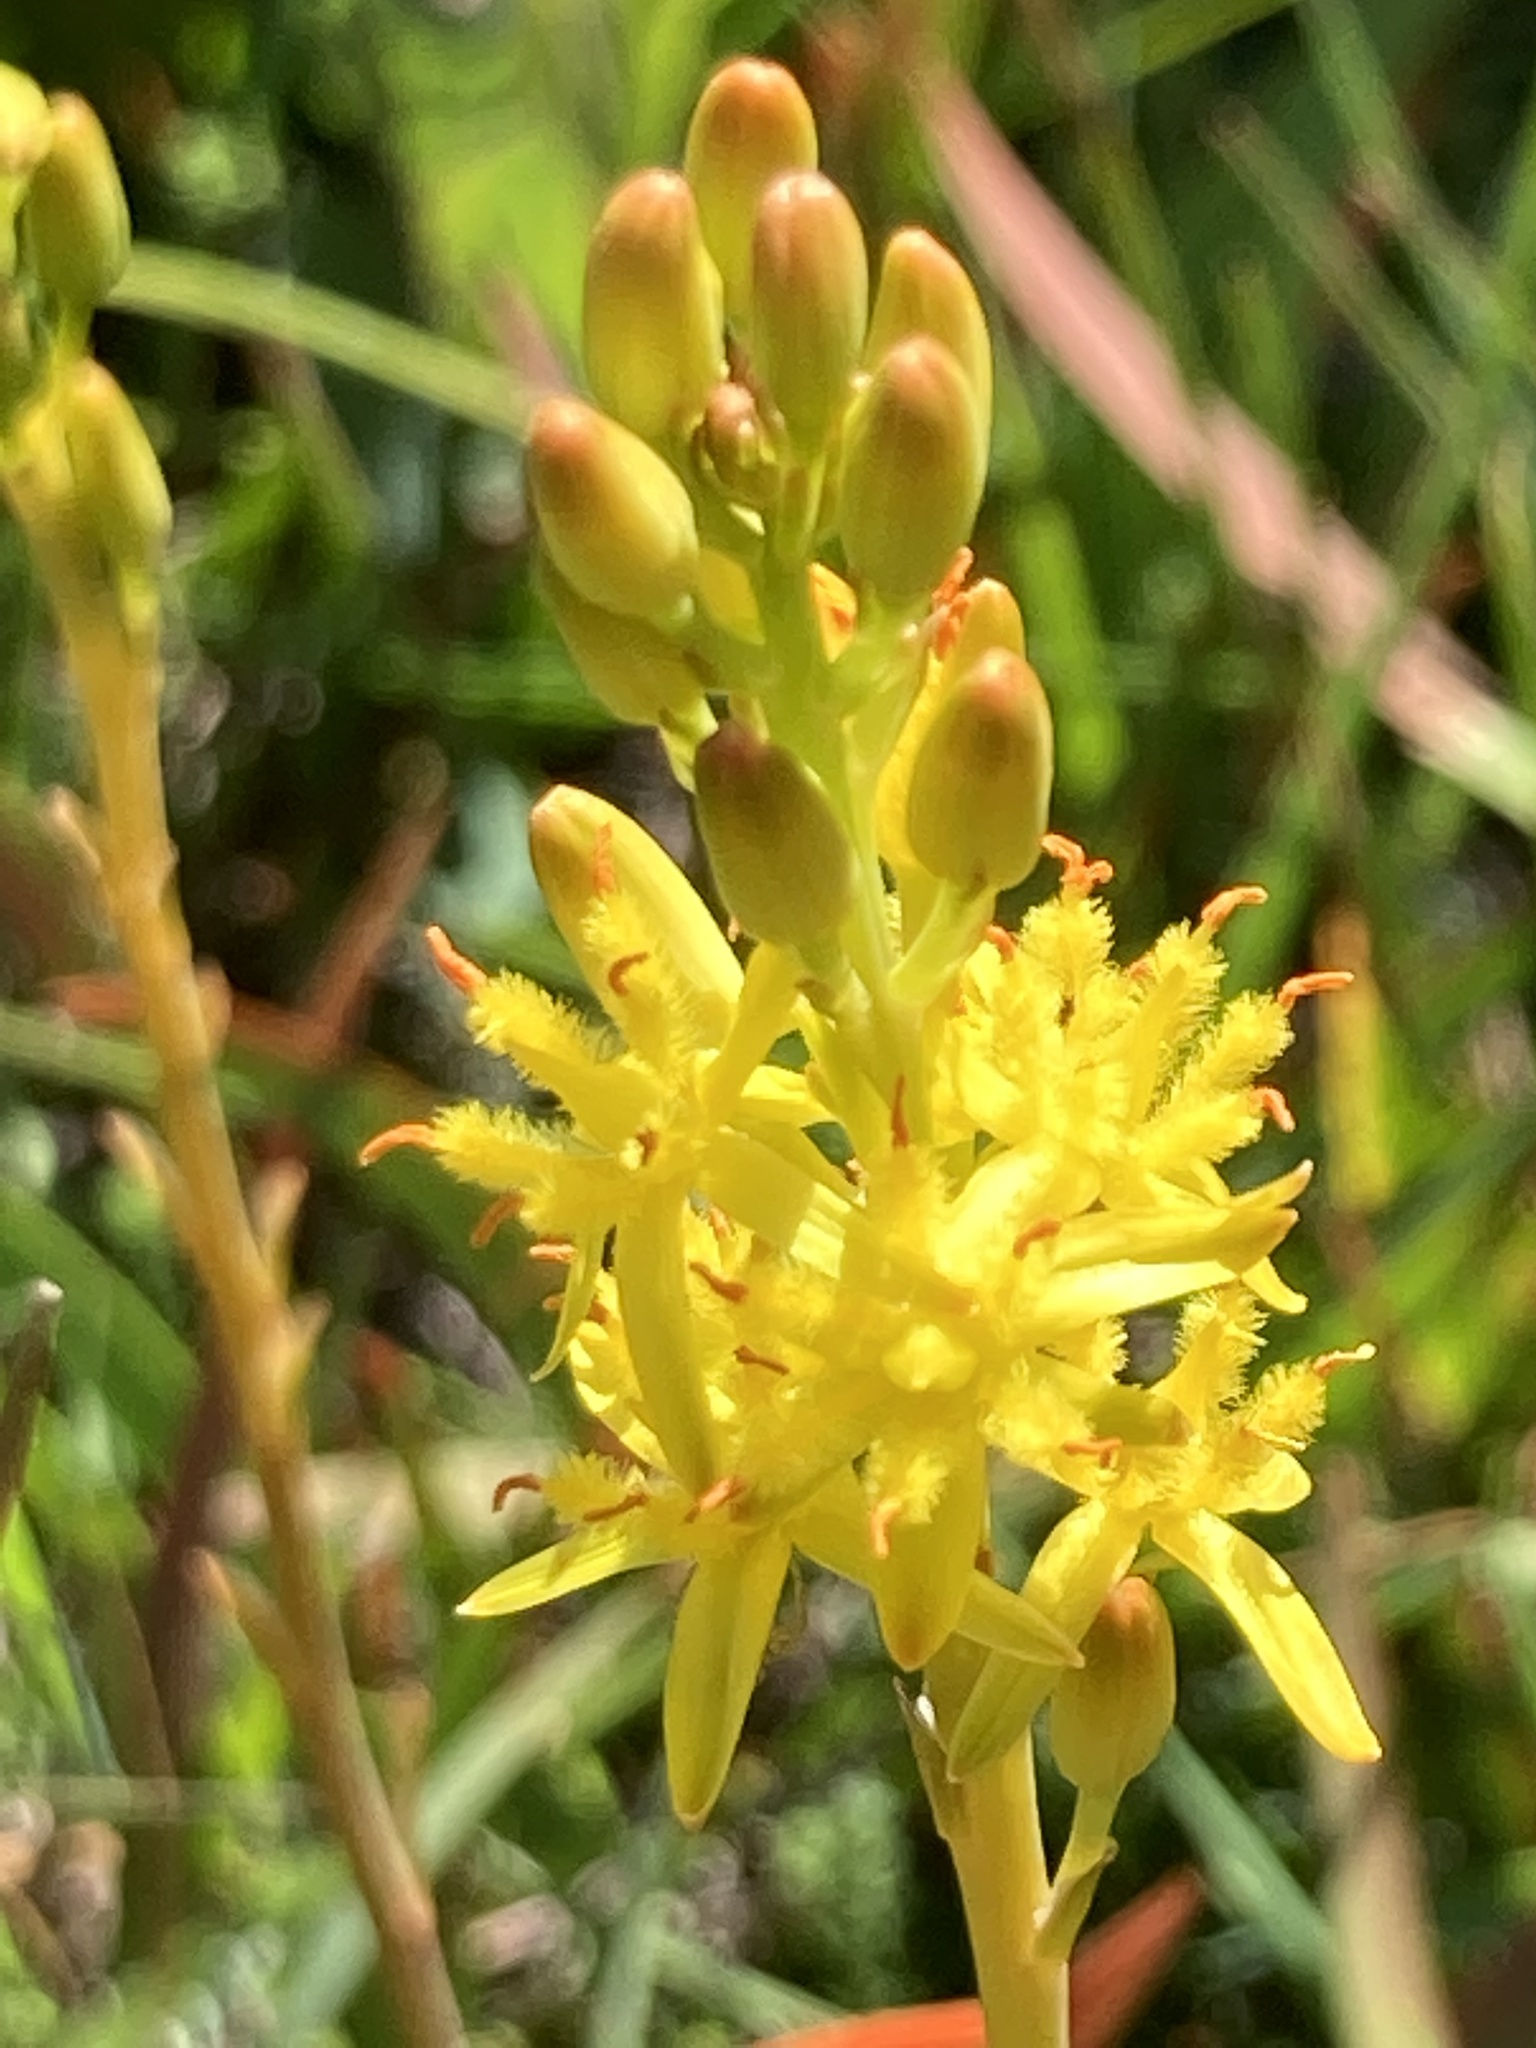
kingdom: Plantae
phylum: Tracheophyta
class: Liliopsida
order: Dioscoreales
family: Nartheciaceae
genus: Narthecium
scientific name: Narthecium ossifragum
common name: Bog asphodel
